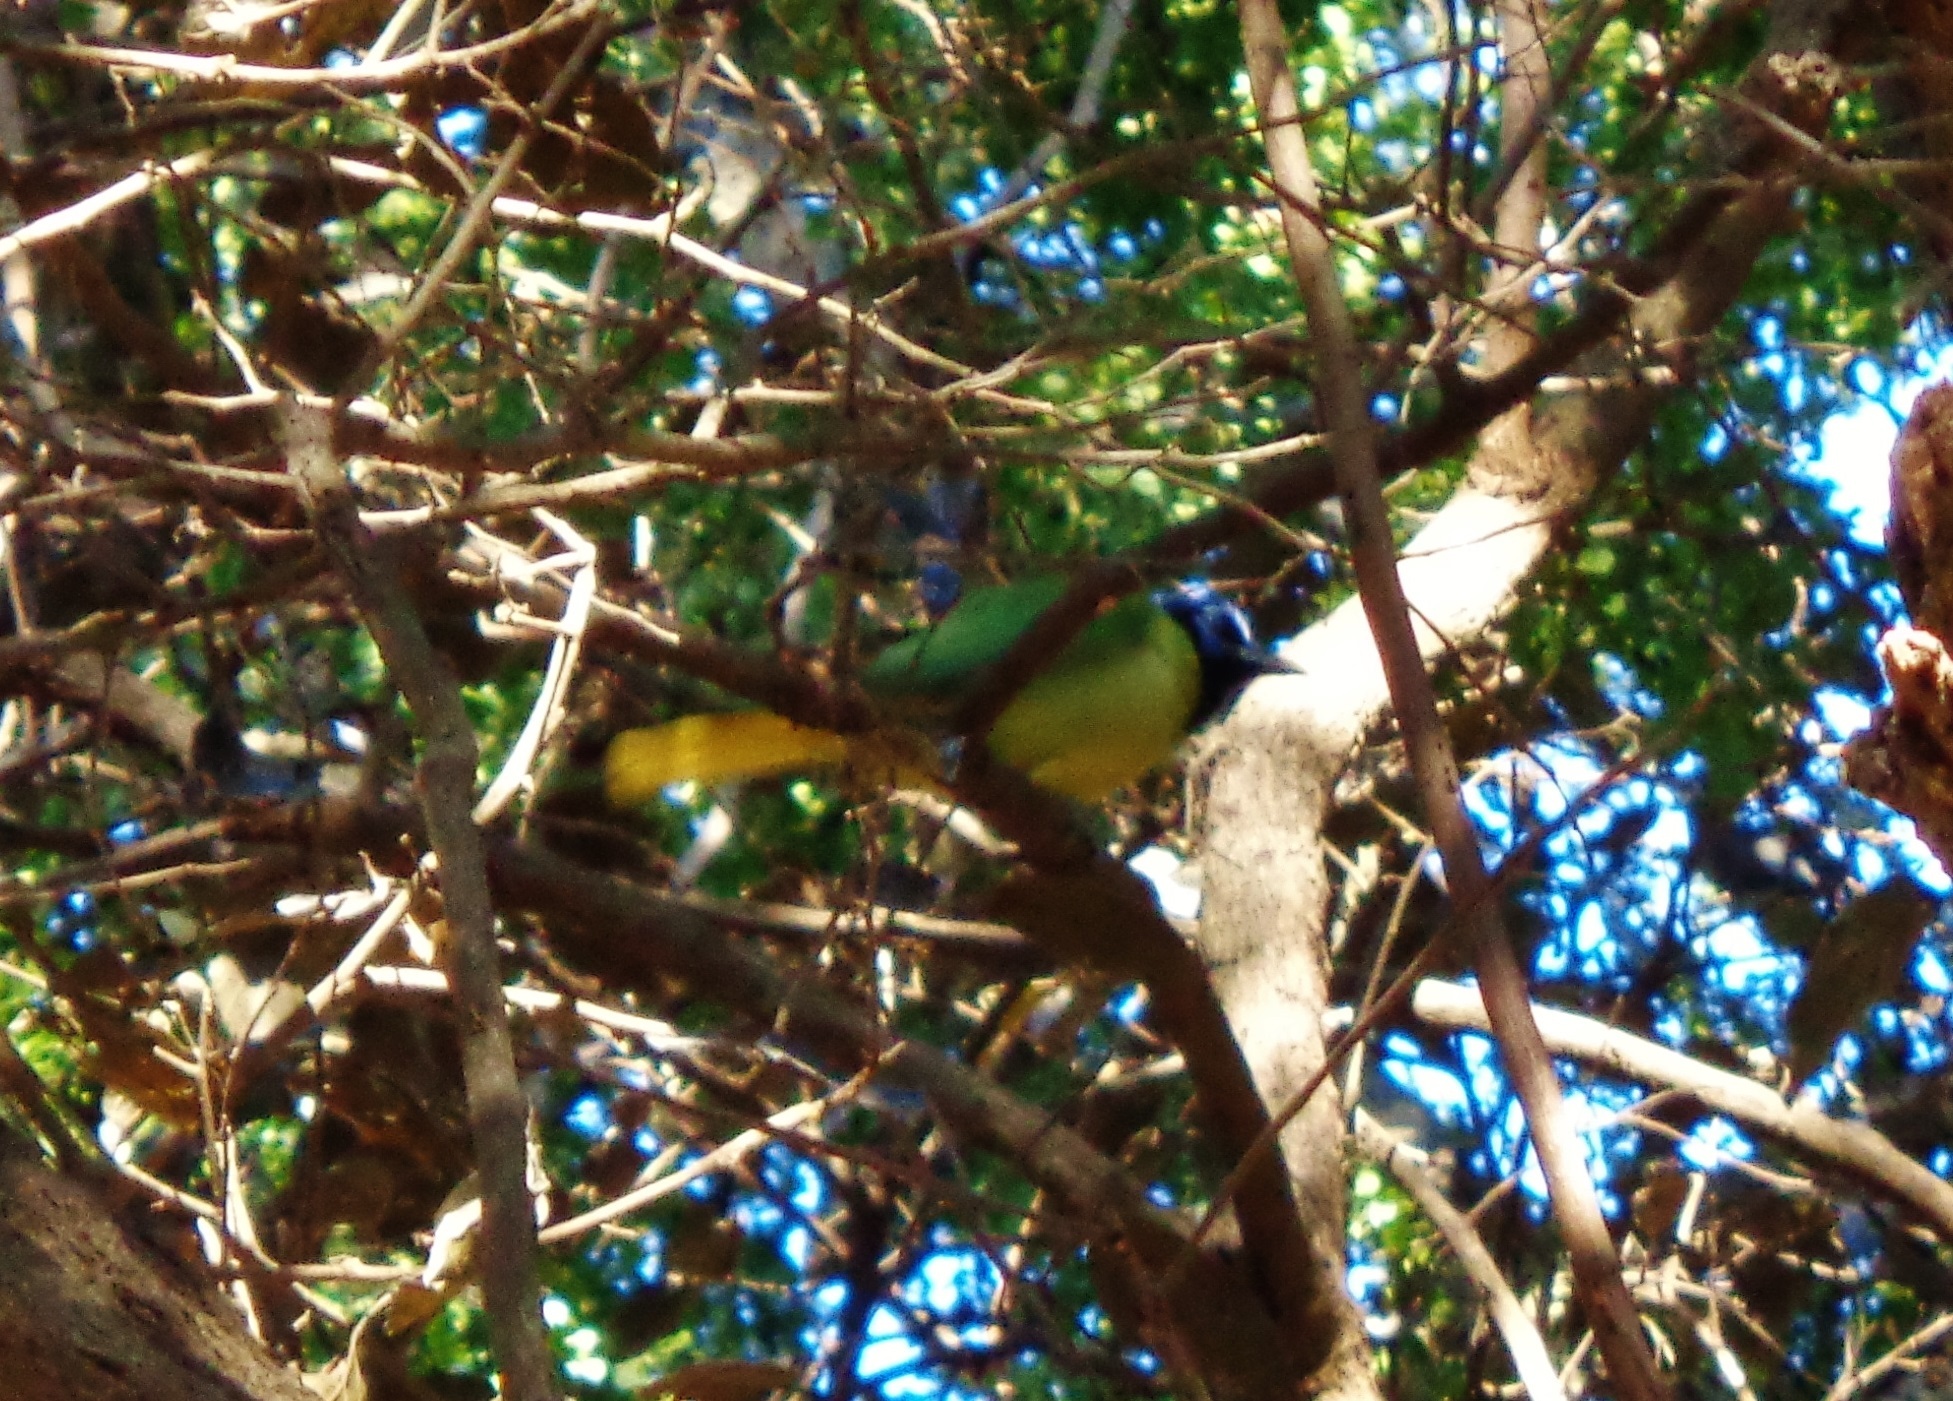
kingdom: Animalia
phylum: Chordata
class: Aves
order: Passeriformes
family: Corvidae
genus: Cyanocorax
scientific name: Cyanocorax yncas
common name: Green jay
